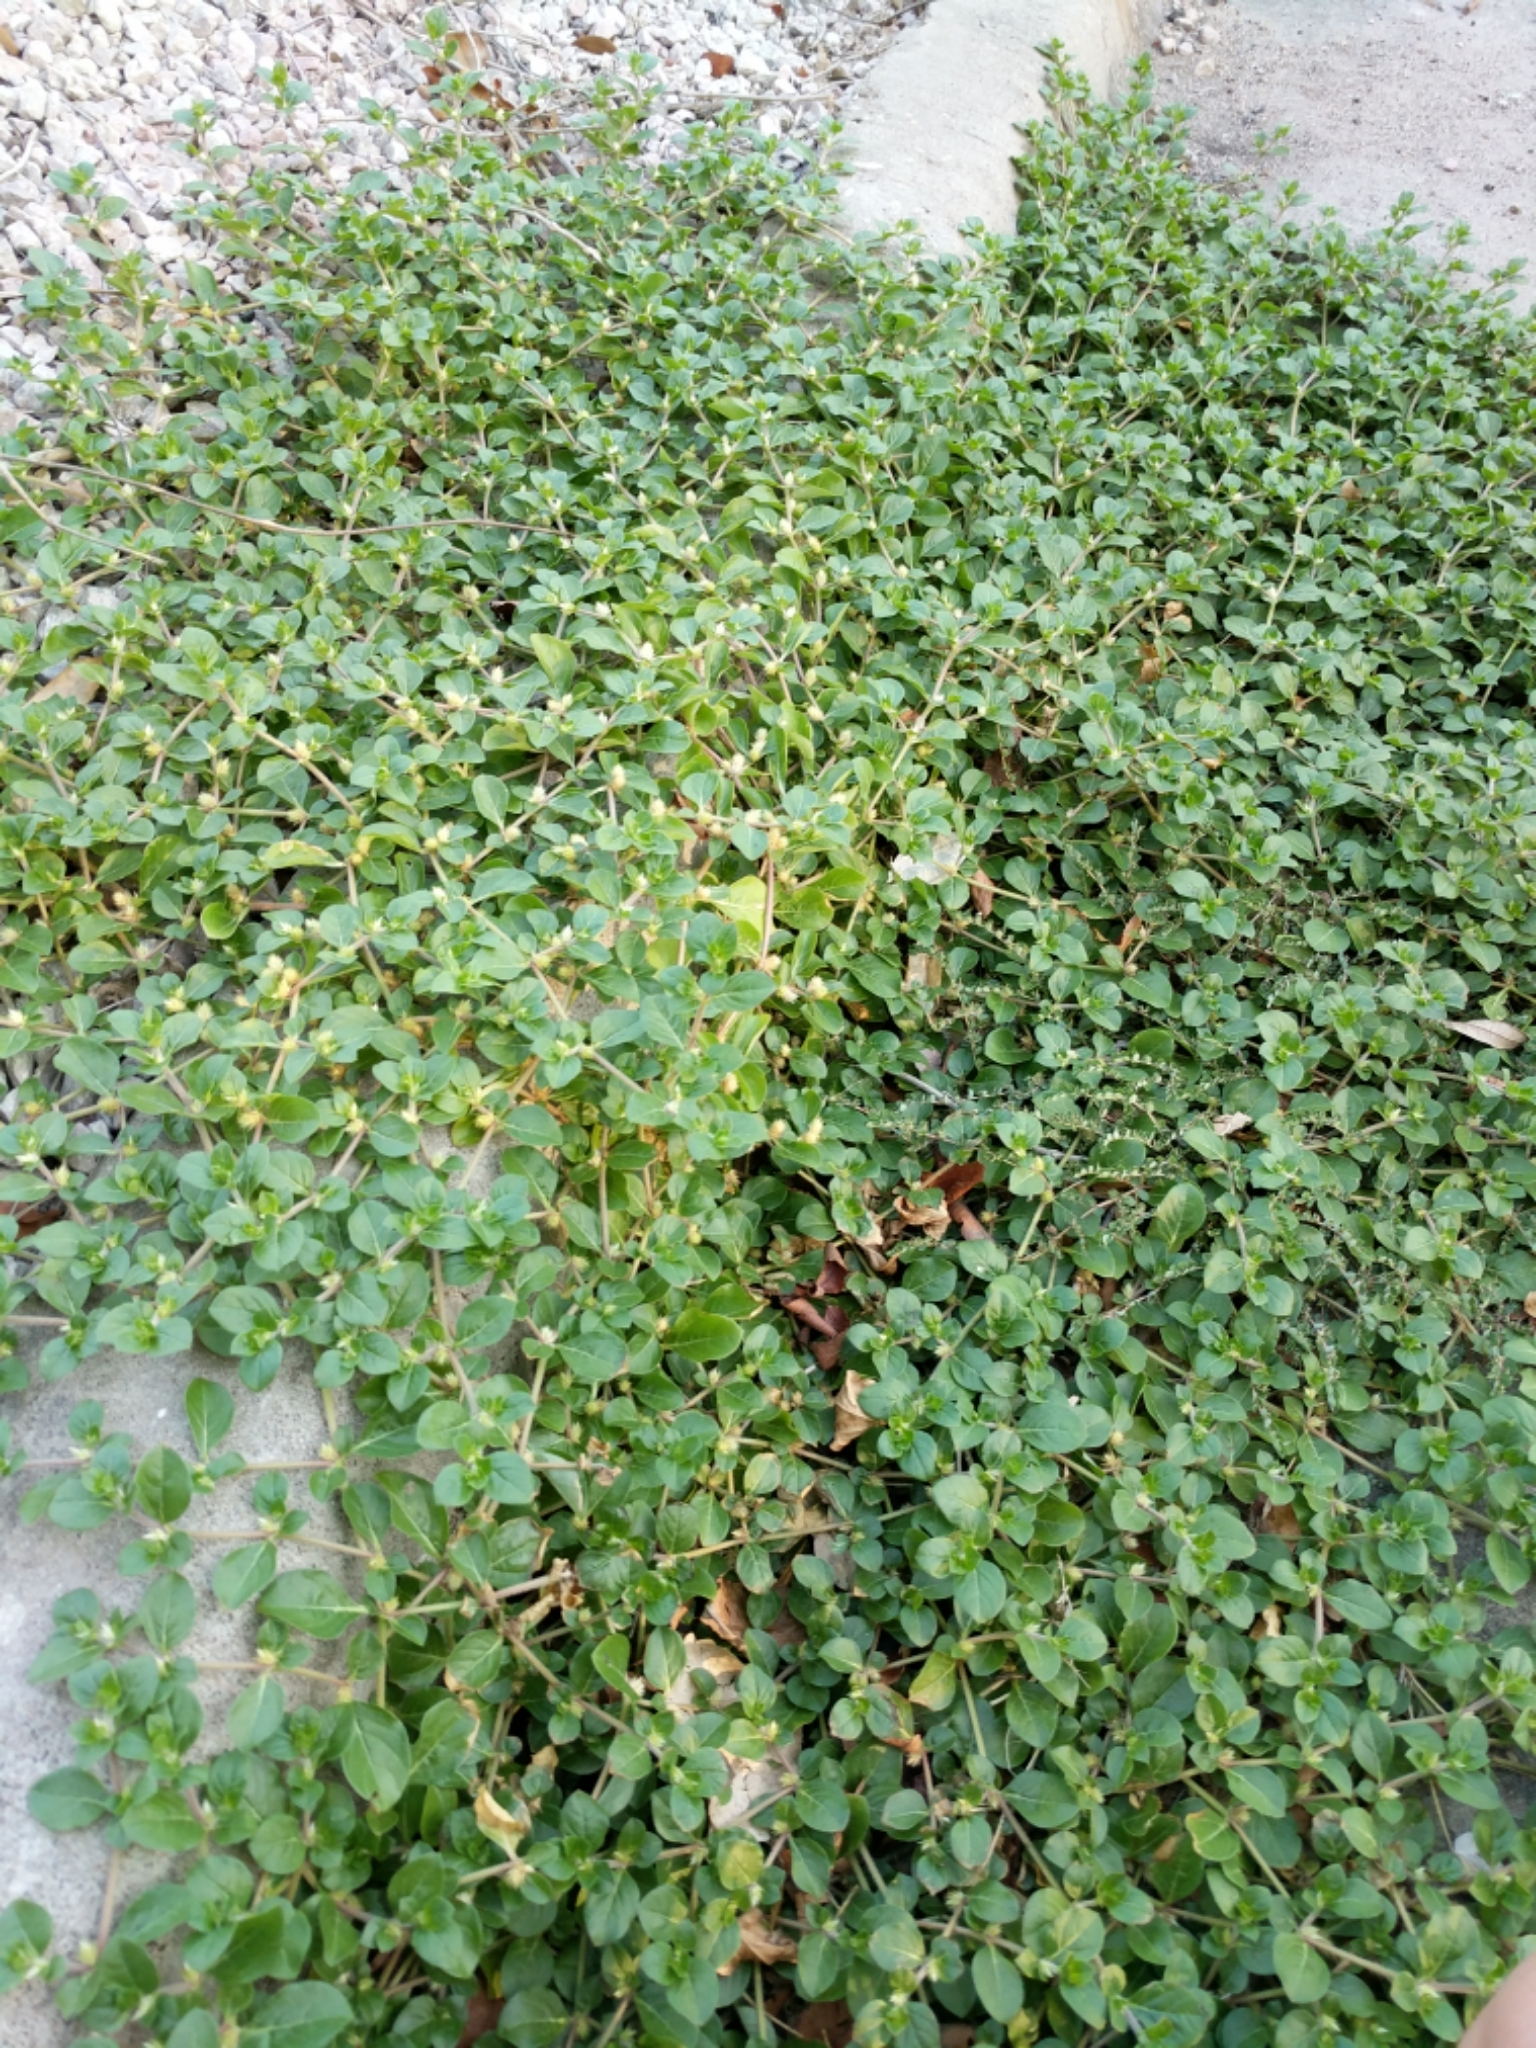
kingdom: Plantae
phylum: Tracheophyta
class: Magnoliopsida
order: Caryophyllales
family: Amaranthaceae
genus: Alternanthera
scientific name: Alternanthera pungens
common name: Khakiweed
